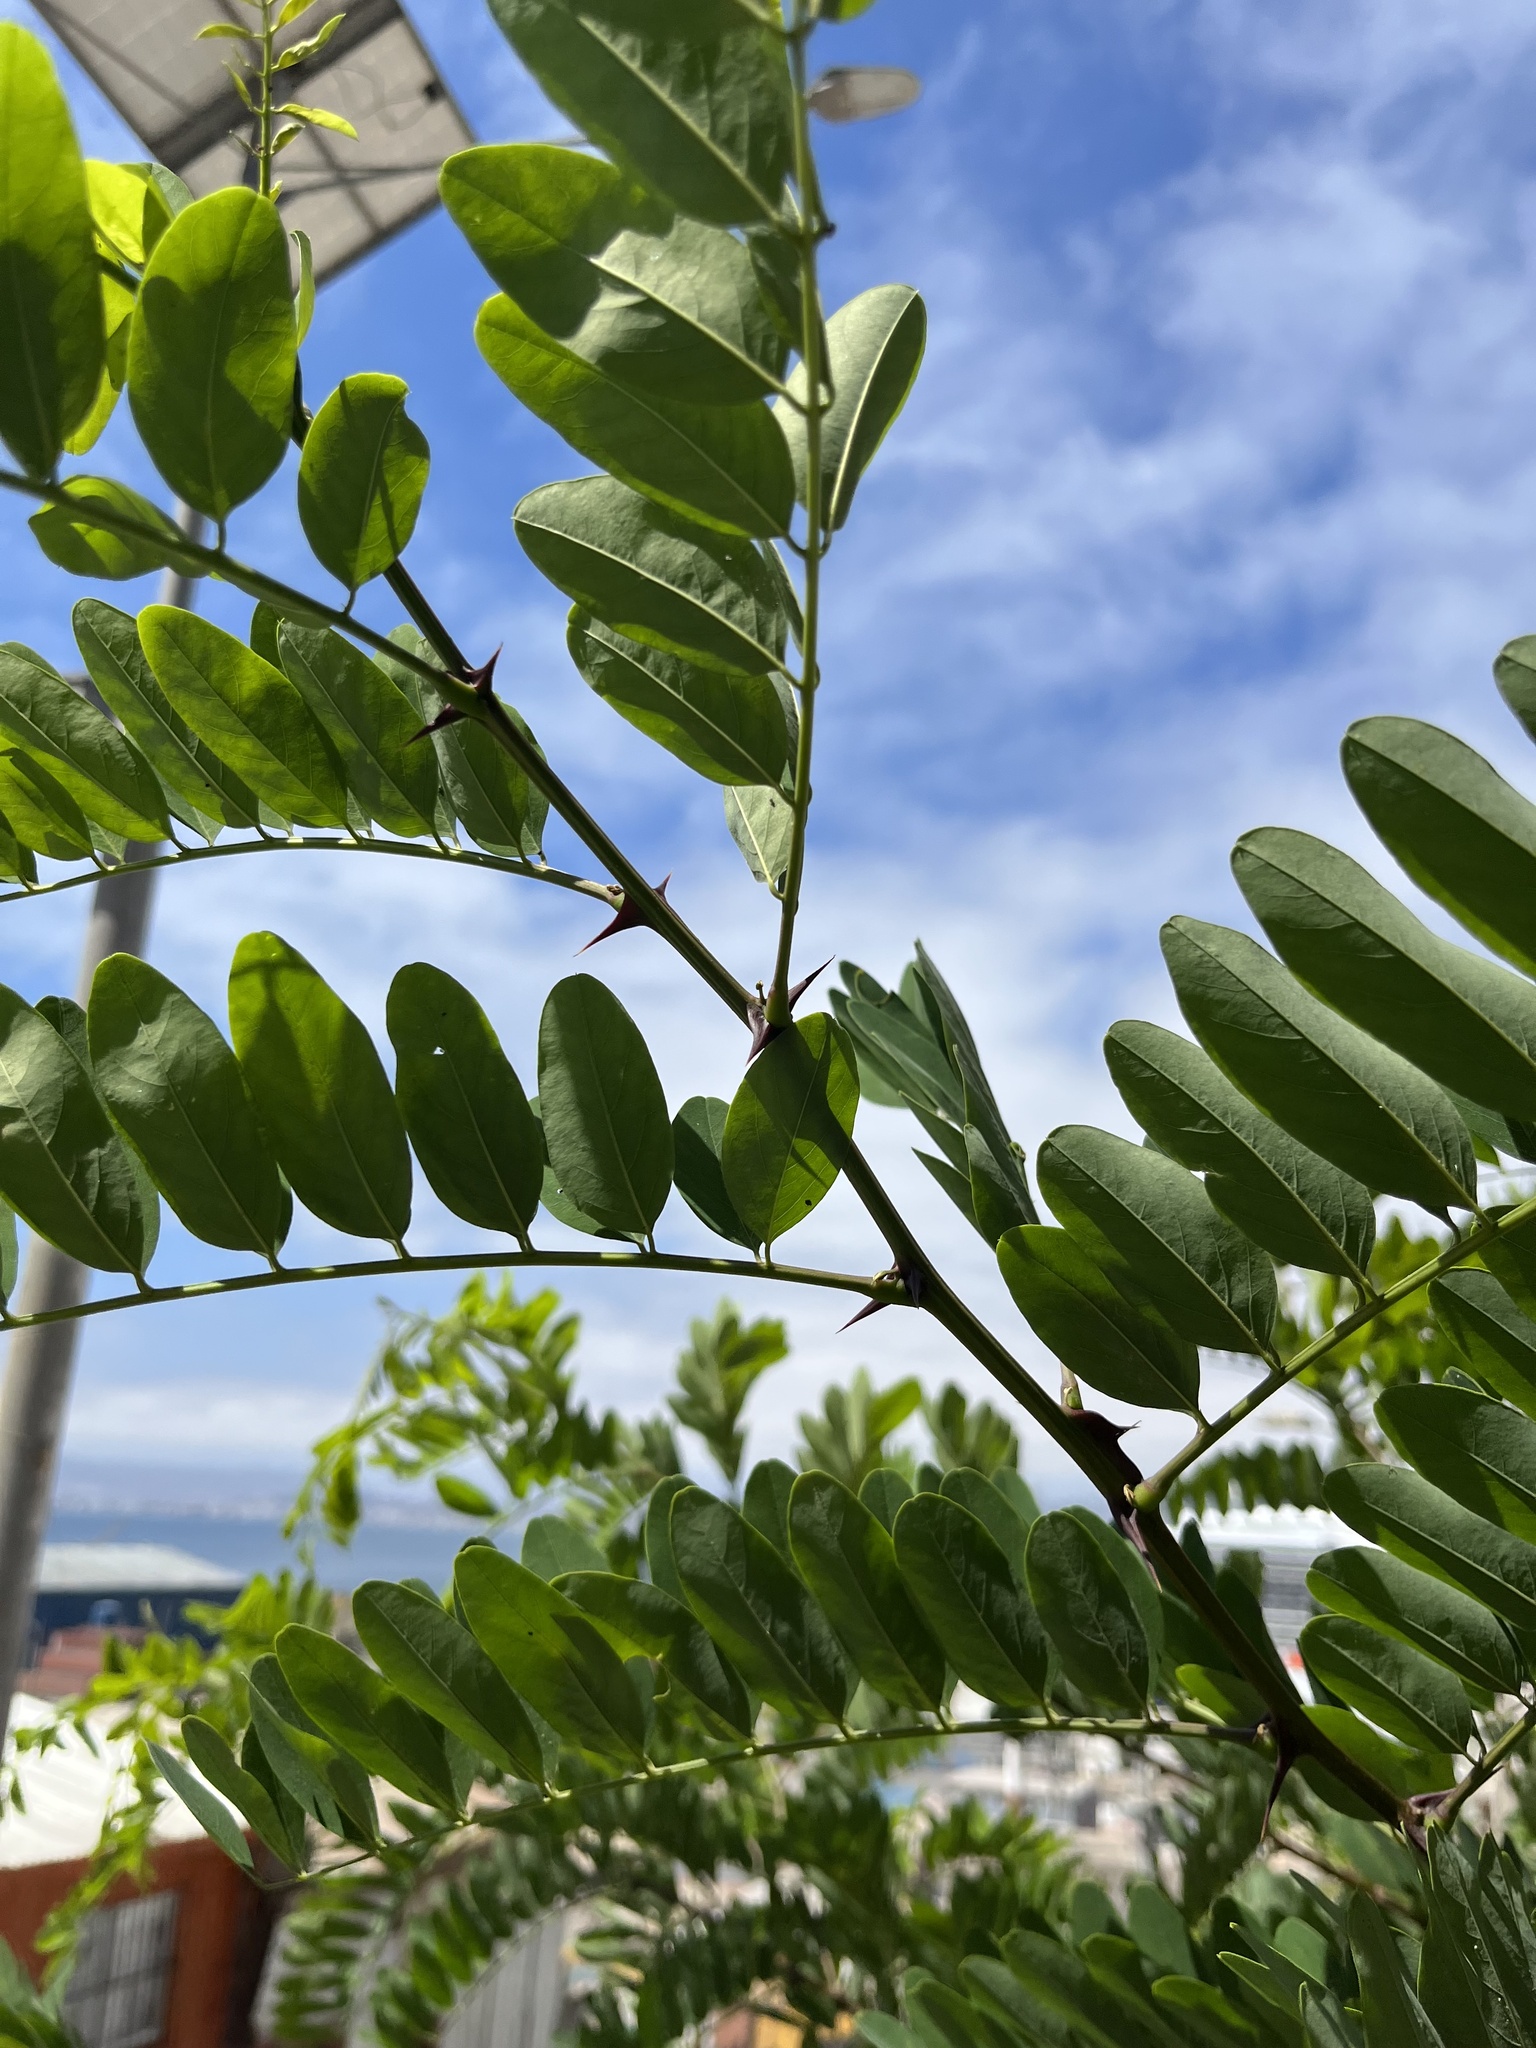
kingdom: Plantae
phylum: Tracheophyta
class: Magnoliopsida
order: Fabales
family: Fabaceae
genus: Robinia
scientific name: Robinia pseudoacacia
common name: Black locust
